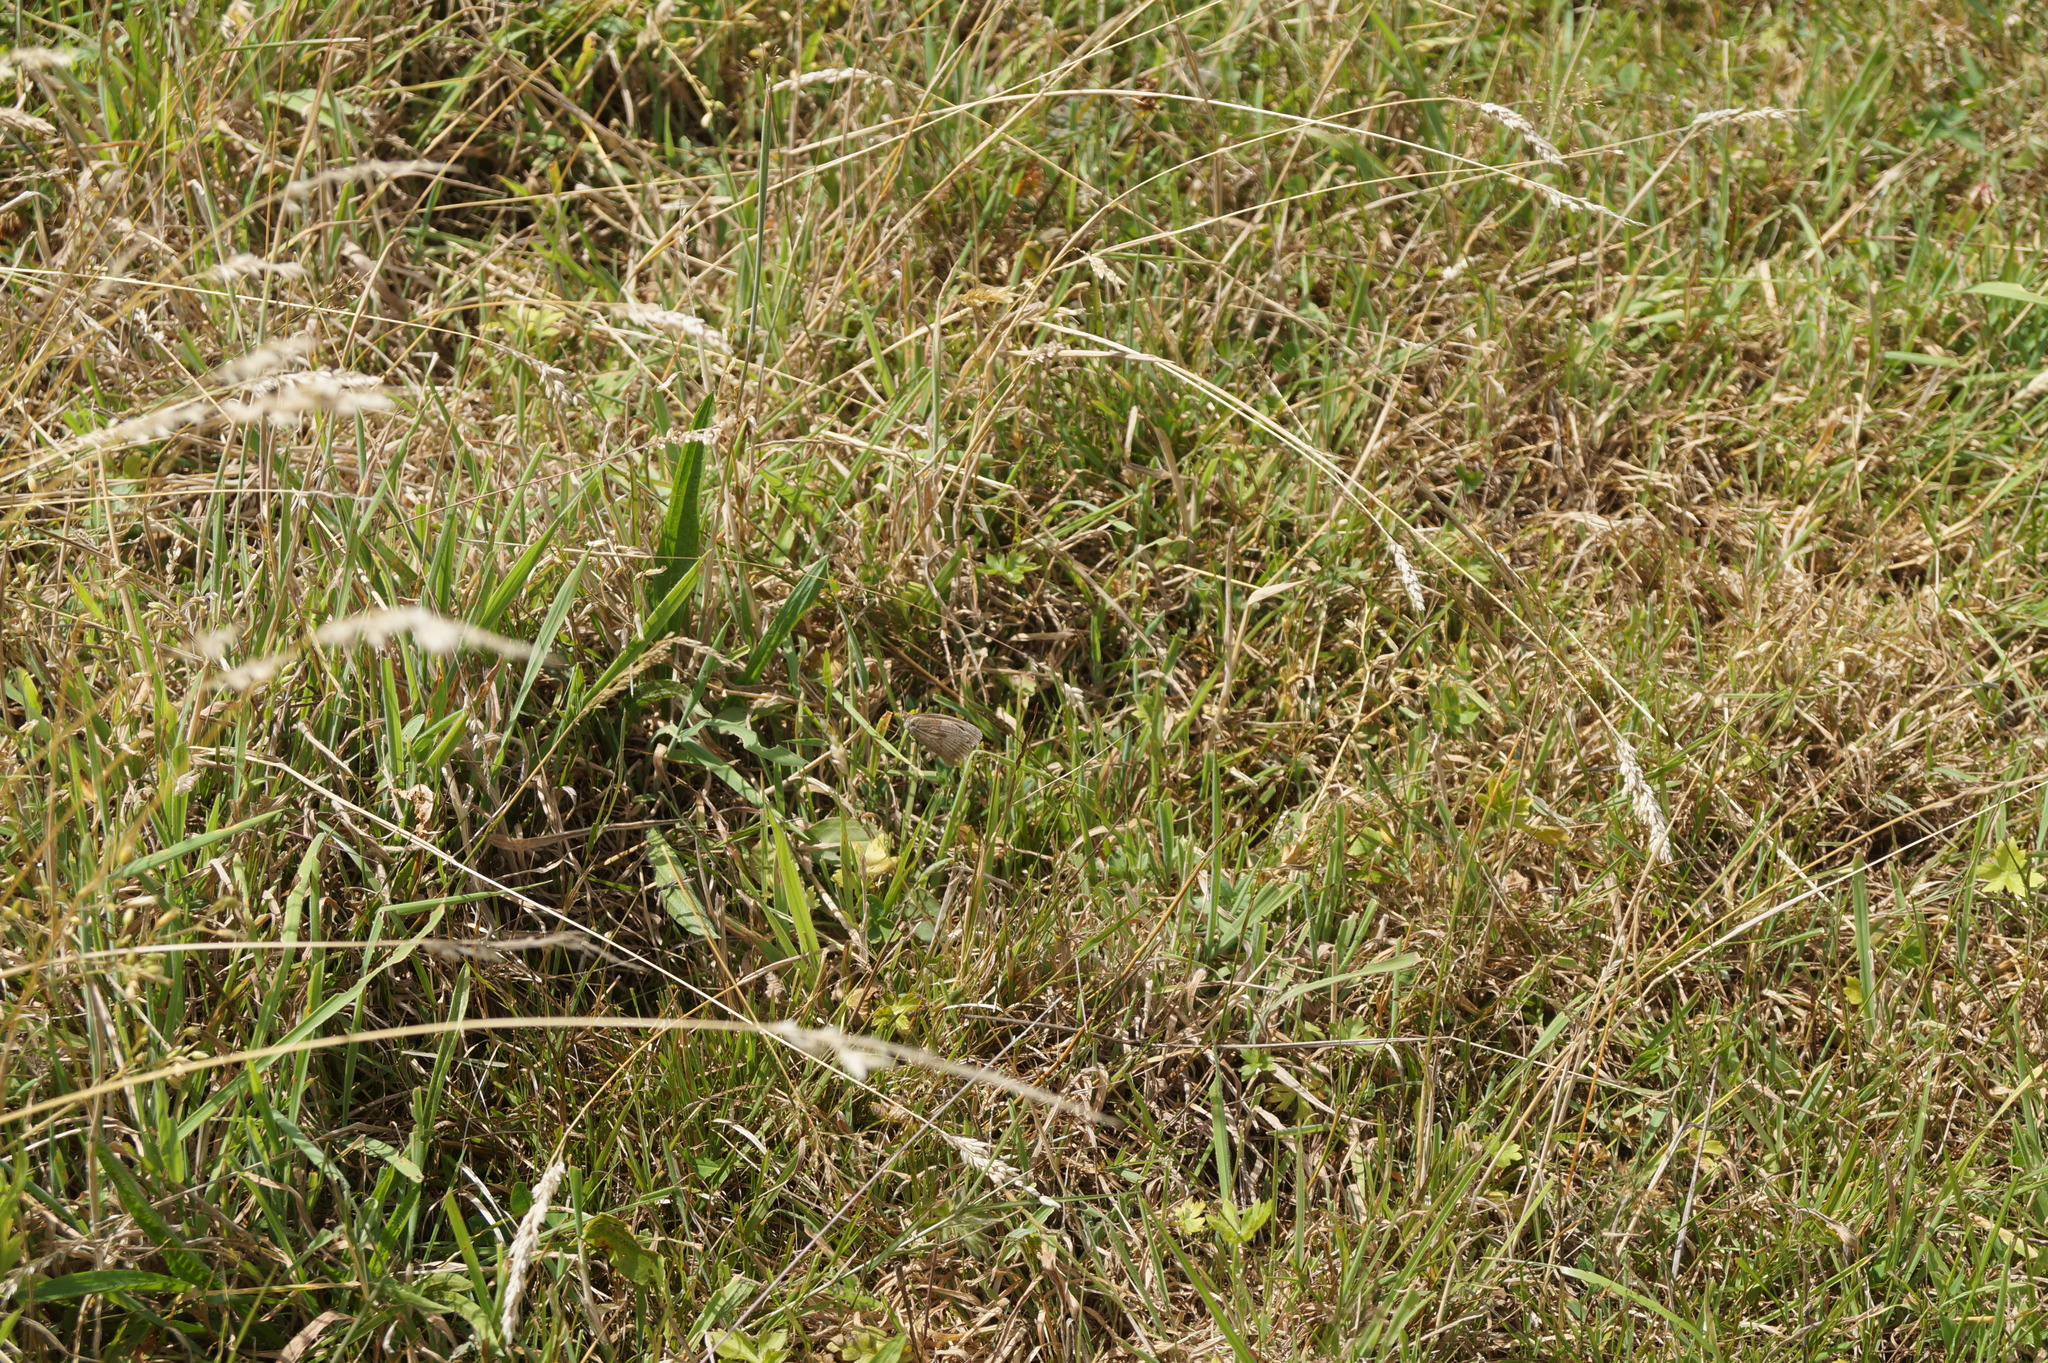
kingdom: Animalia
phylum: Arthropoda
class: Insecta
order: Lepidoptera
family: Nymphalidae
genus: Maniola
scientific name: Maniola jurtina
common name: Meadow brown
